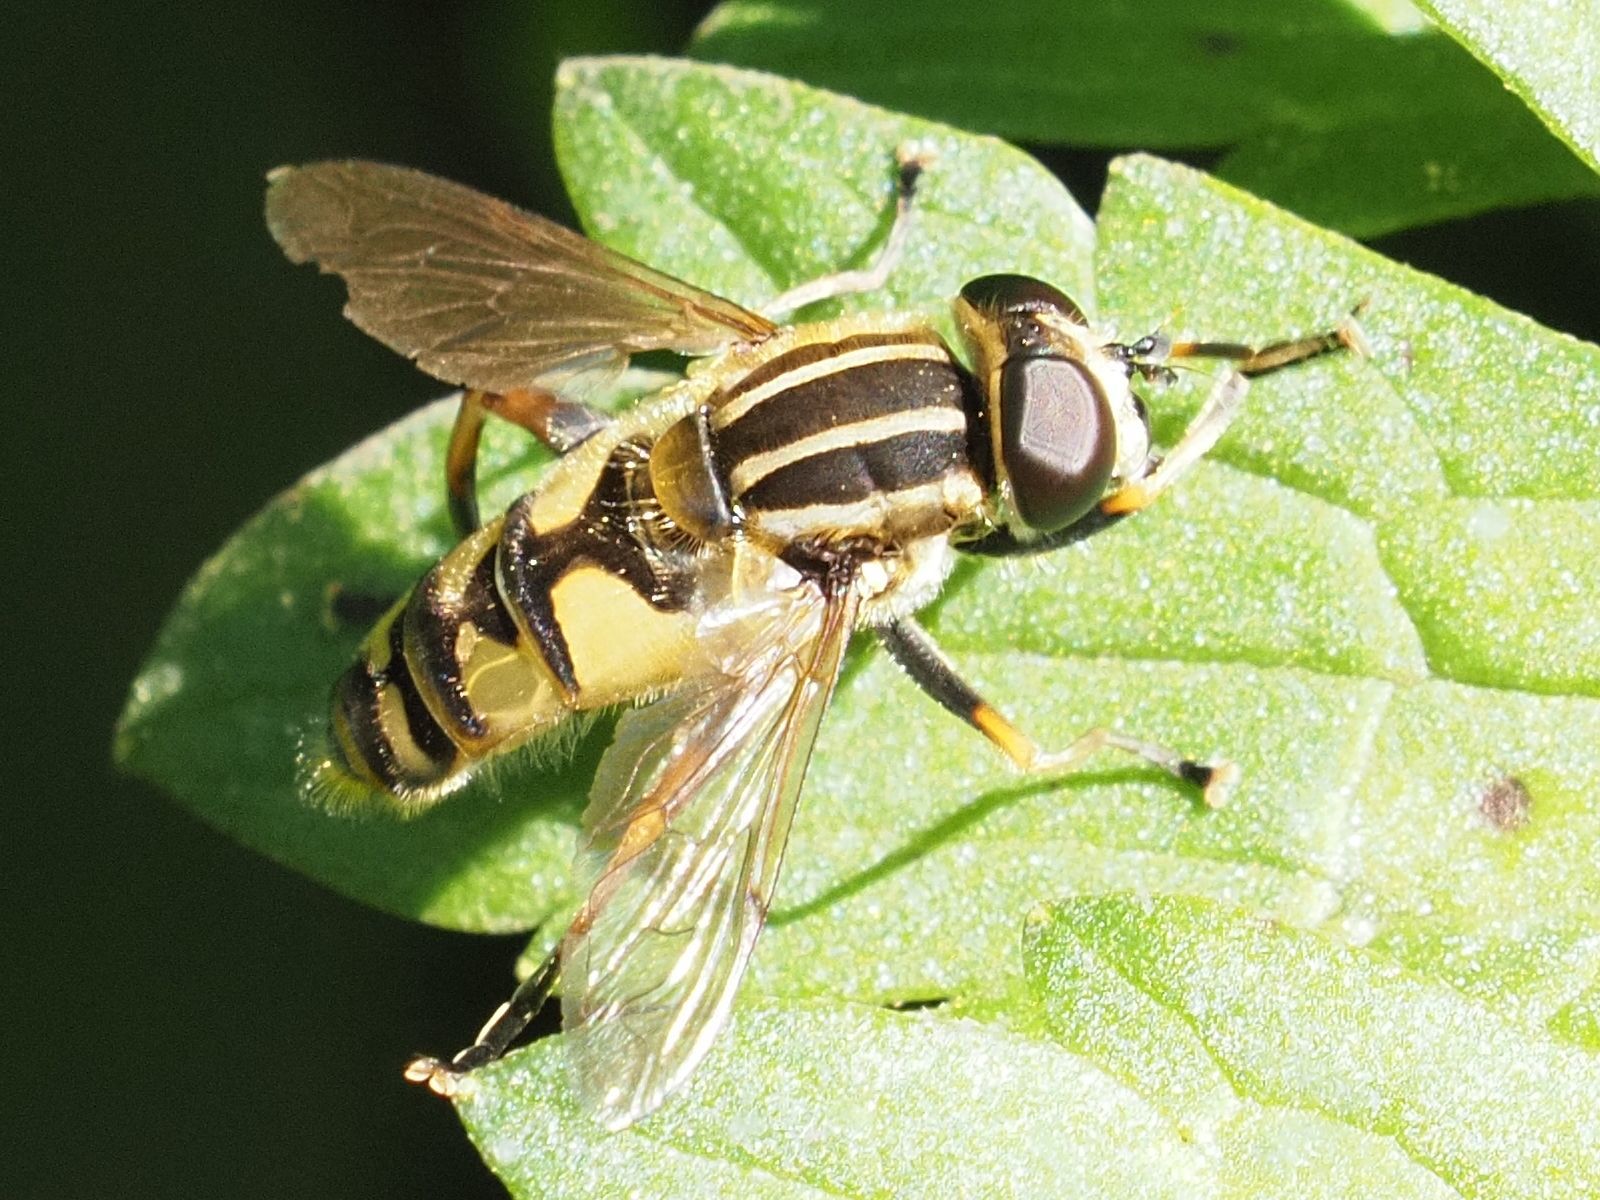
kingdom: Animalia
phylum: Arthropoda
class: Insecta
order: Diptera
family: Syrphidae
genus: Helophilus
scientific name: Helophilus pendulus
